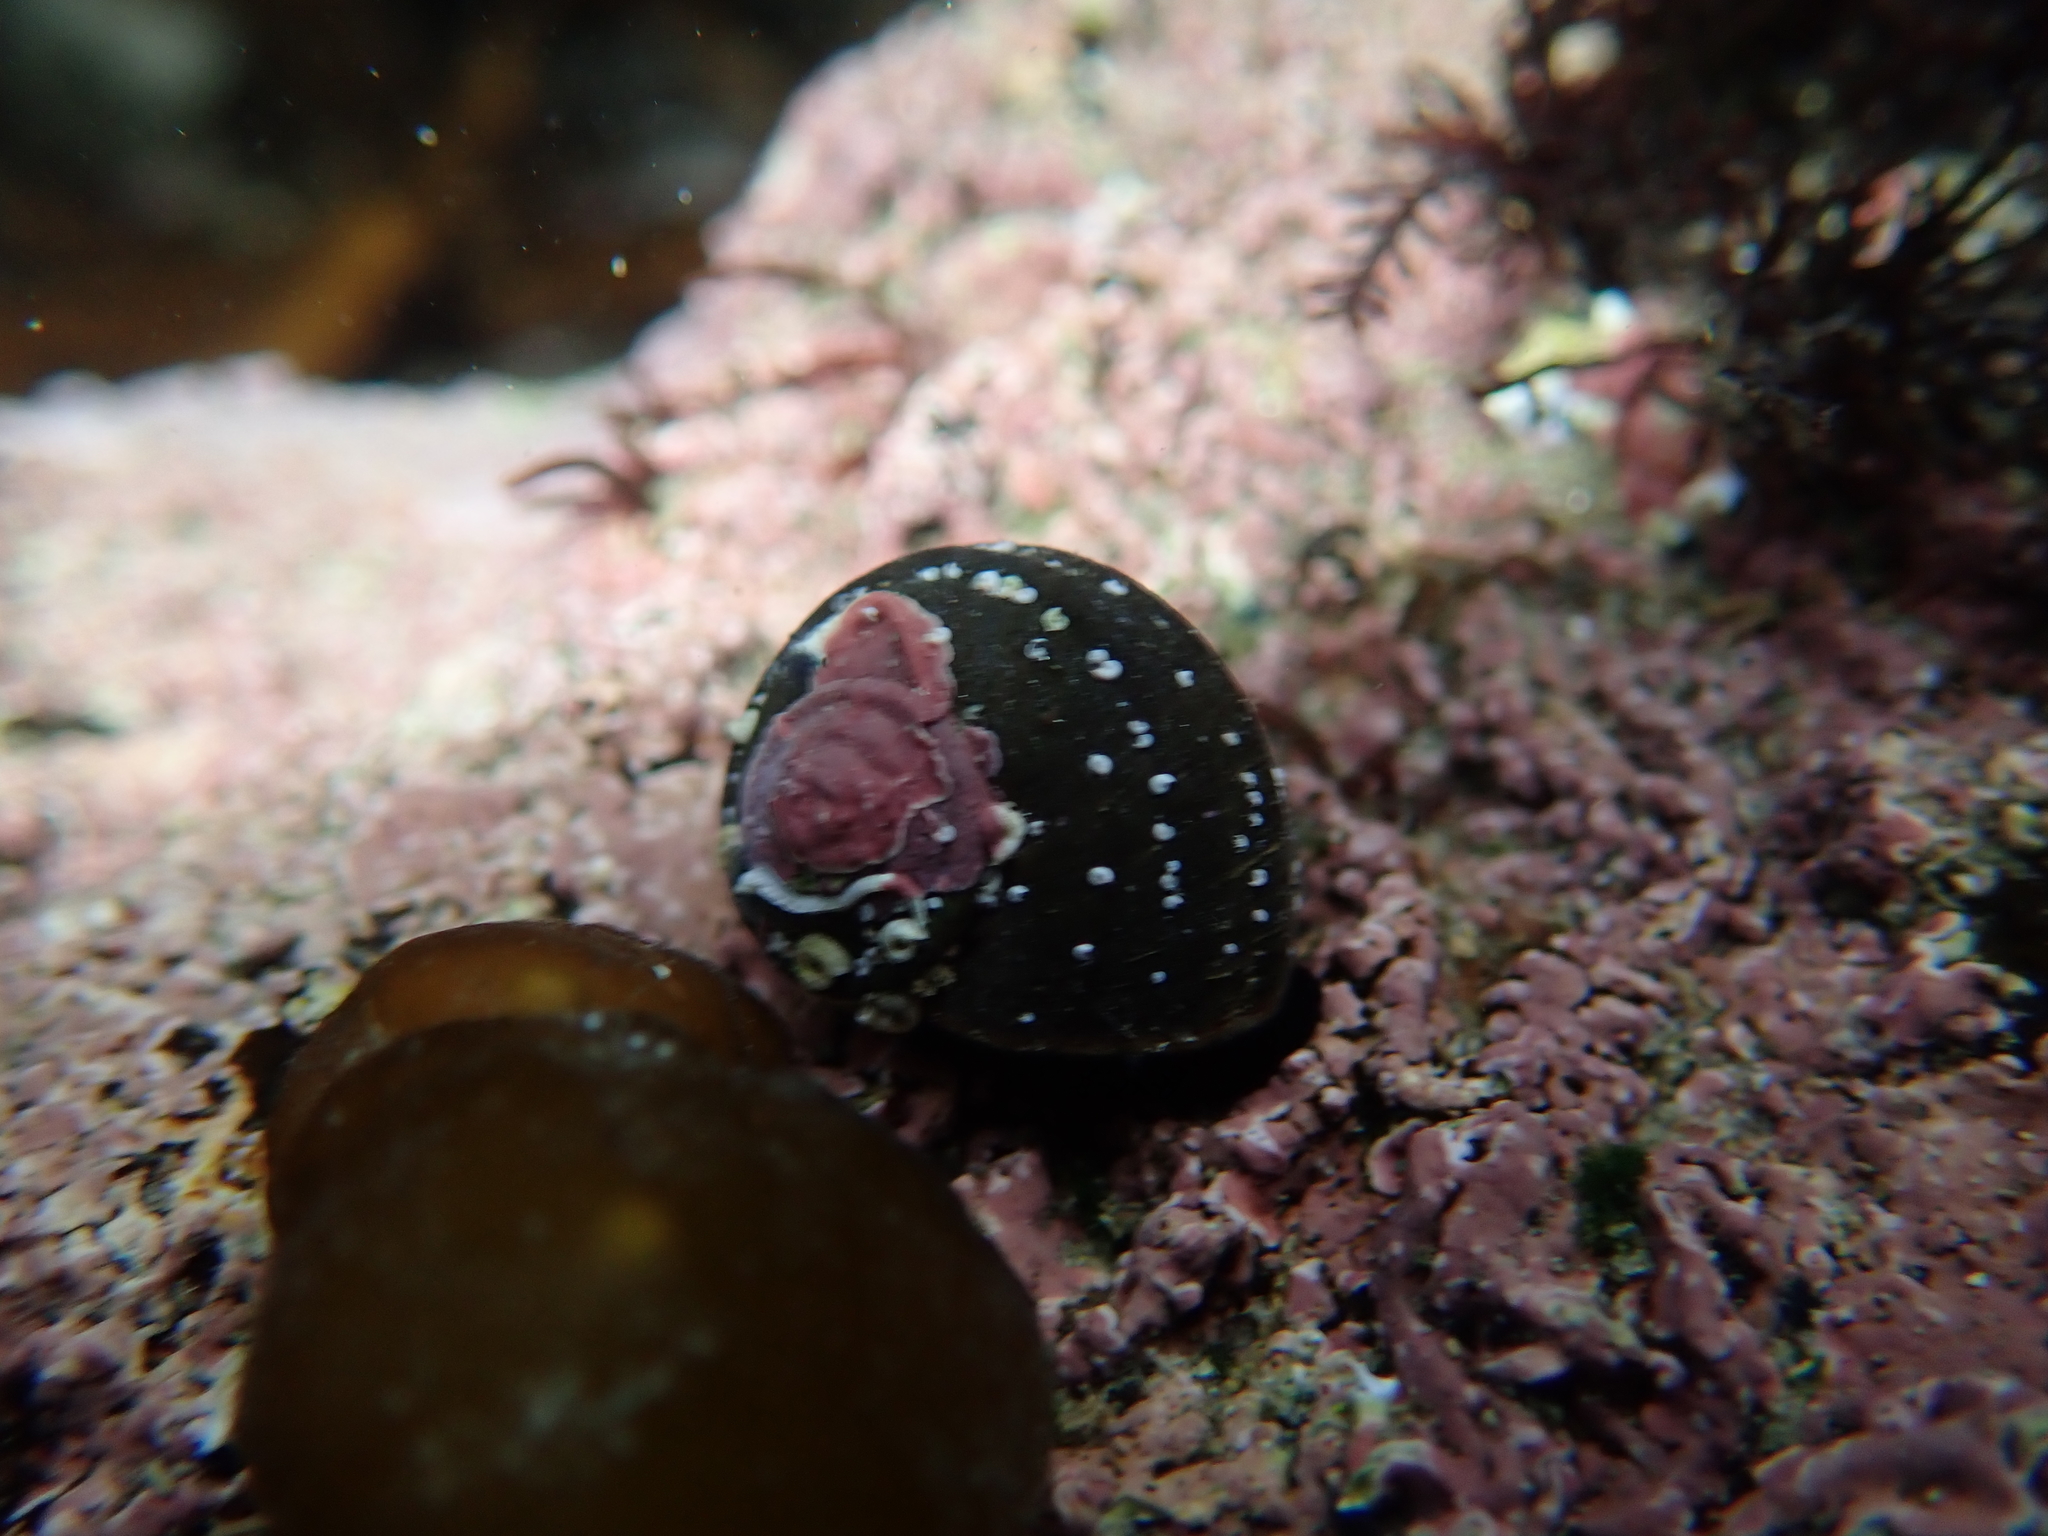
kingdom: Animalia
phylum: Mollusca
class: Gastropoda
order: Trochida
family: Turbinidae
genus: Lunella
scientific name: Lunella smaragda
